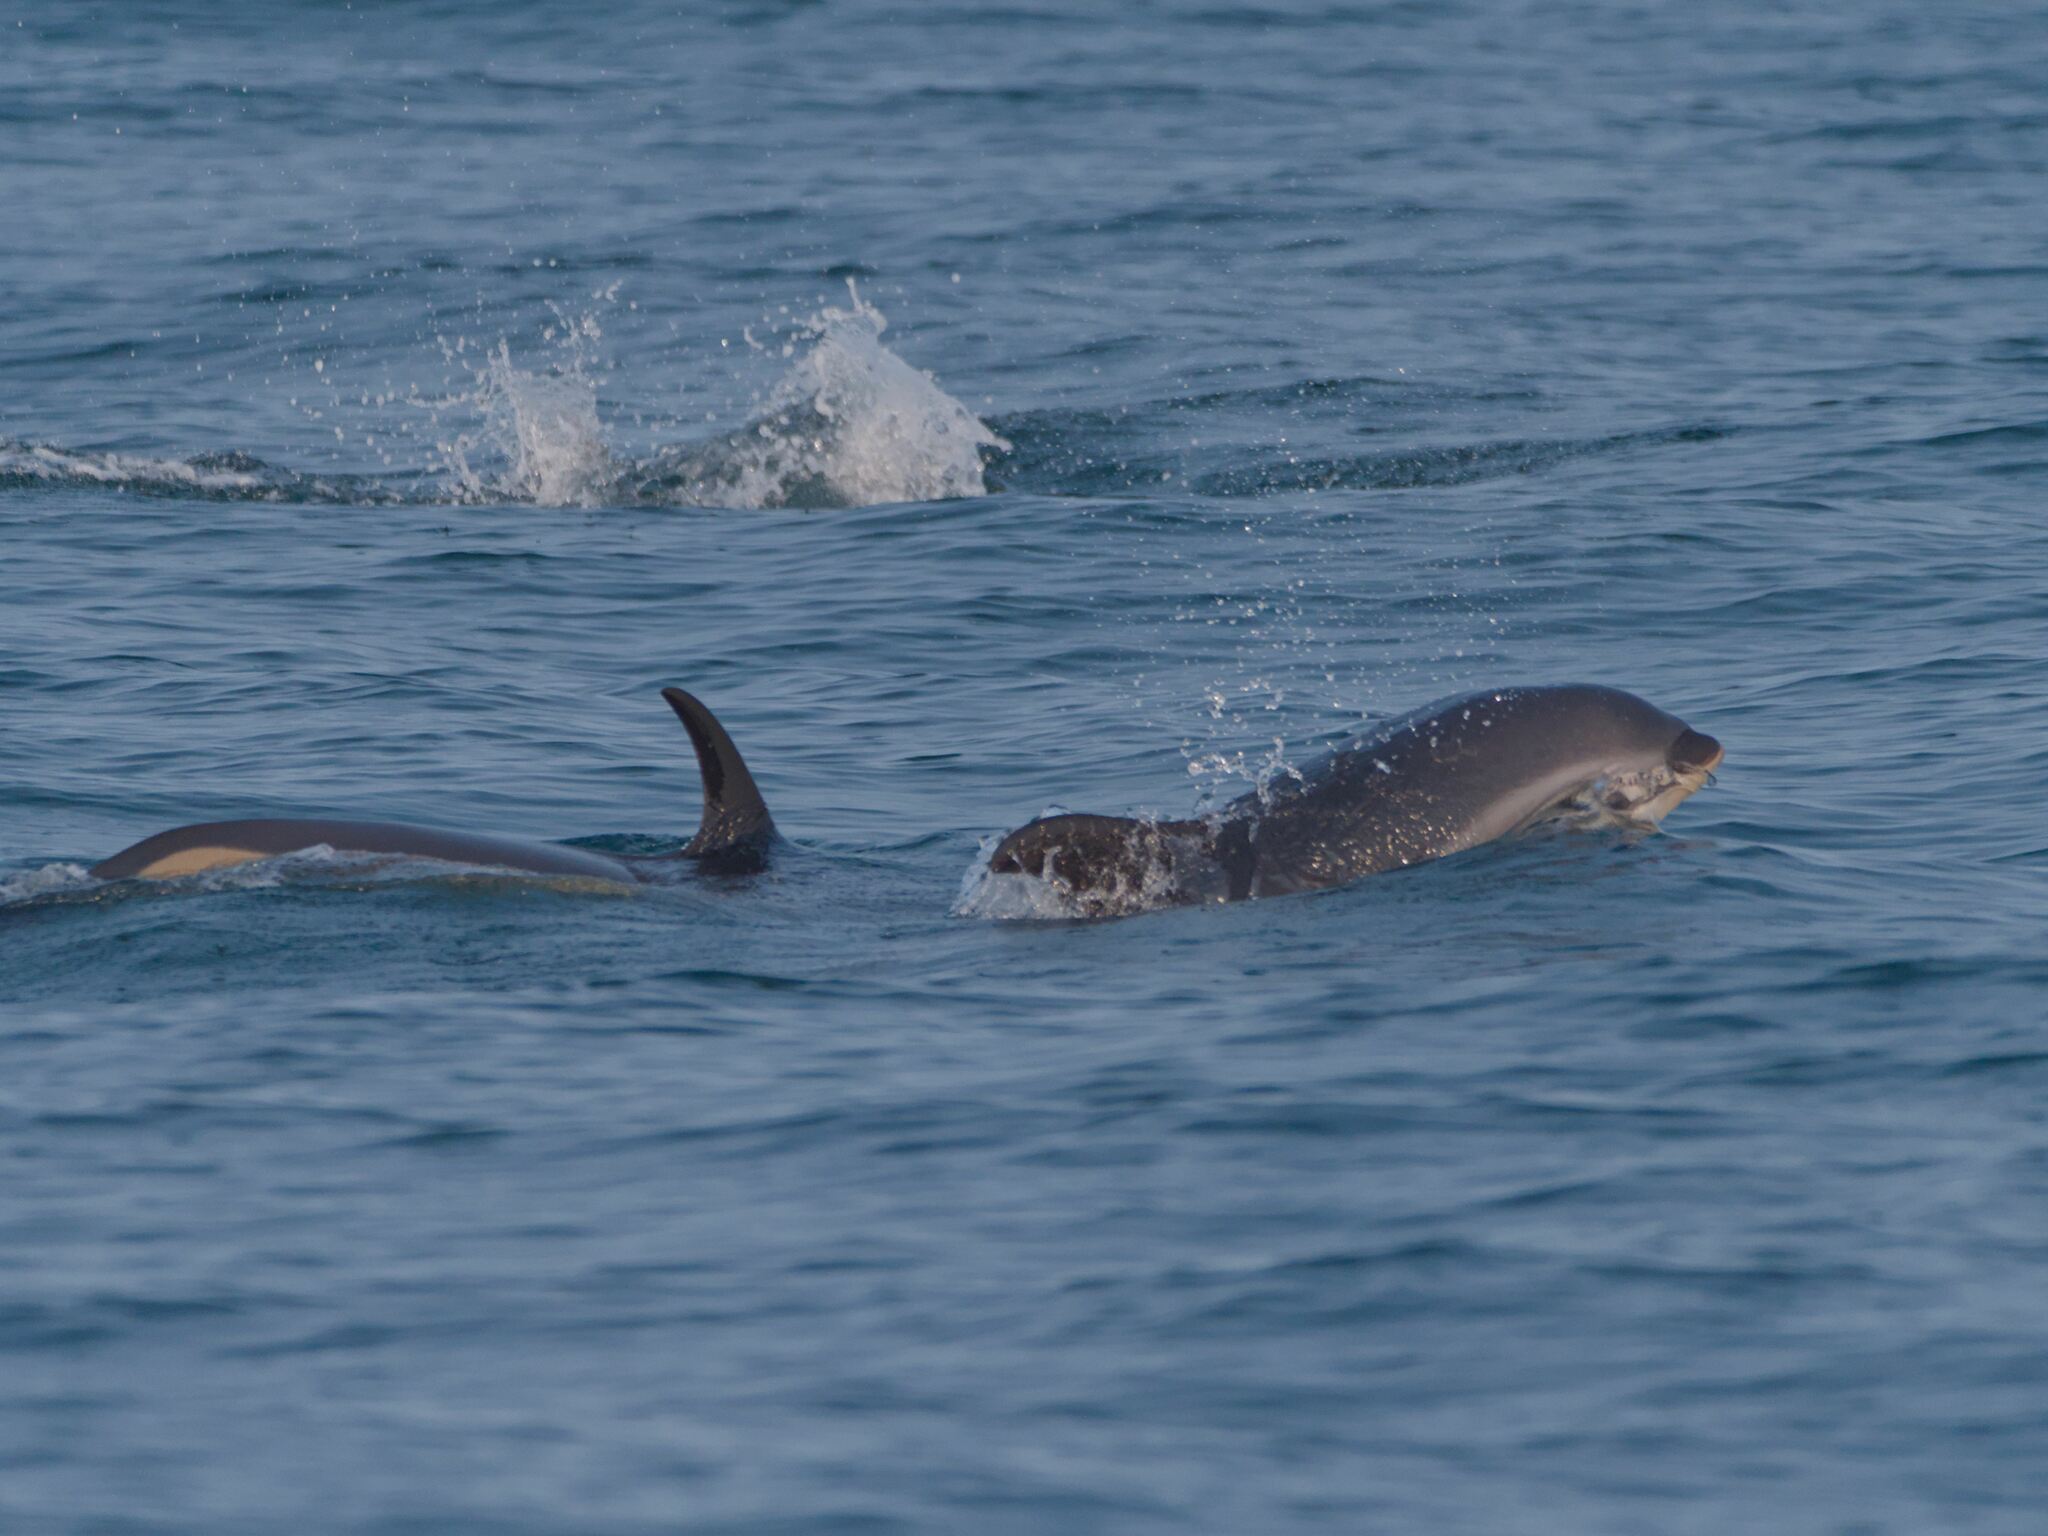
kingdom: Animalia
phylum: Chordata
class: Mammalia
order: Cetacea
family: Delphinidae
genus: Lagenorhynchus
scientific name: Lagenorhynchus acutus
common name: Atlantic white-sided dolphin
